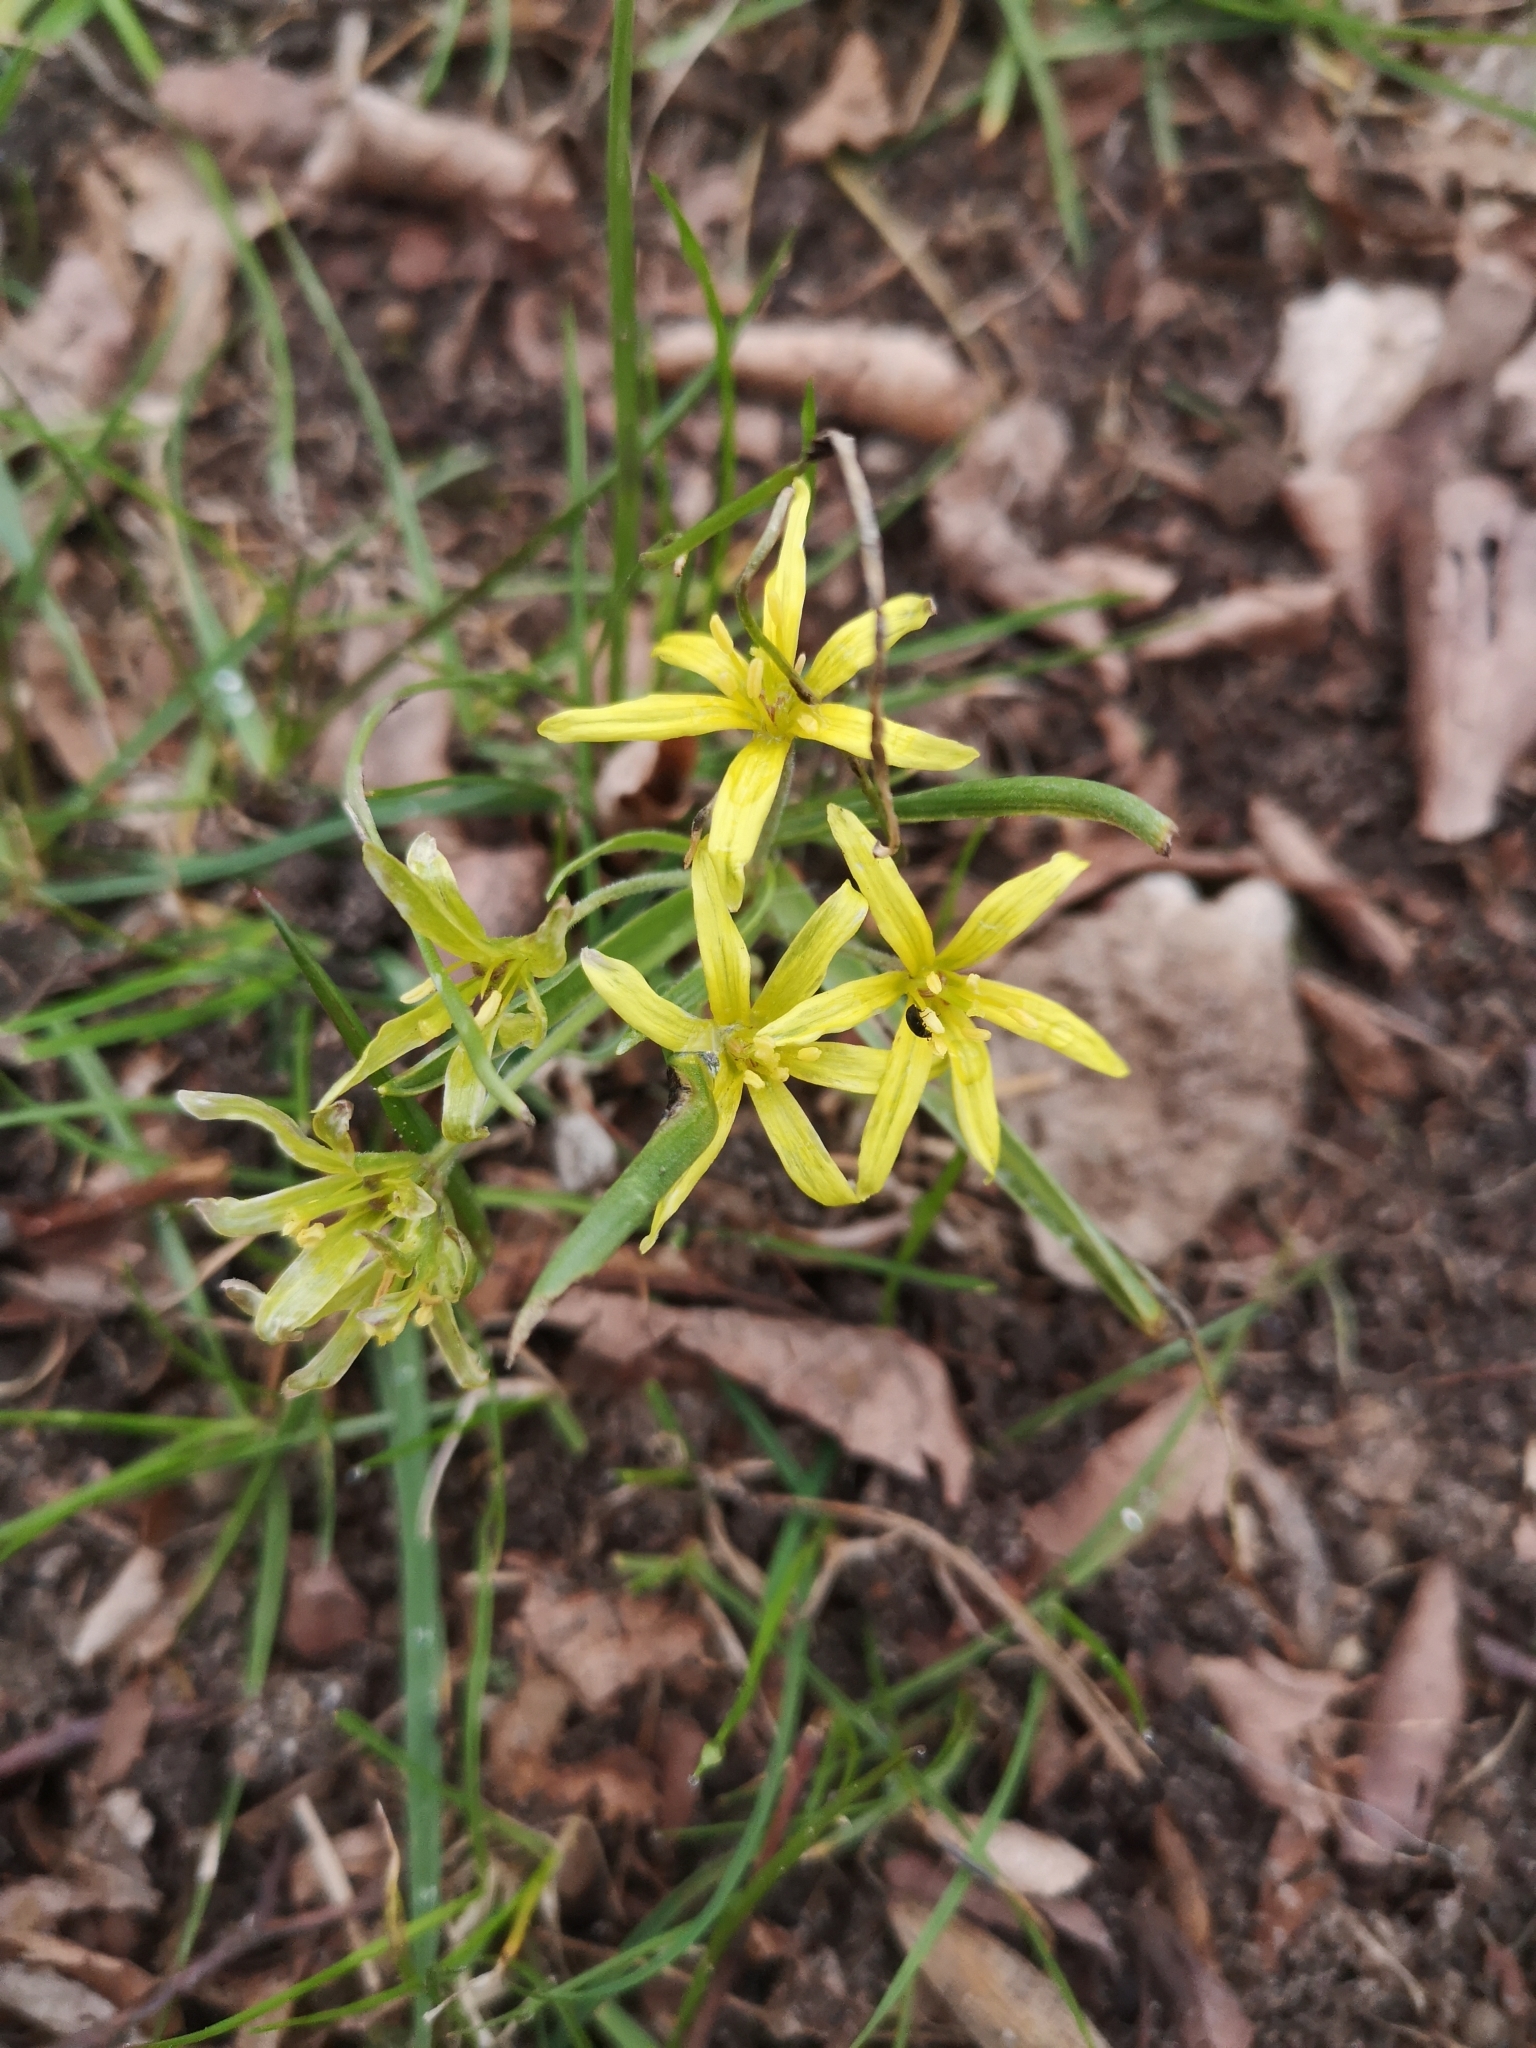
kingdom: Plantae
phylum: Tracheophyta
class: Liliopsida
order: Liliales
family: Liliaceae
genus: Gagea
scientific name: Gagea villosa
